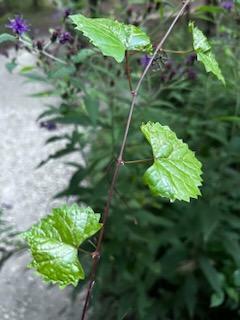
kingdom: Plantae
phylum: Tracheophyta
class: Magnoliopsida
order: Vitales
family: Vitaceae
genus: Vitis
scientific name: Vitis rotundifolia
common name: Muscadine grape
